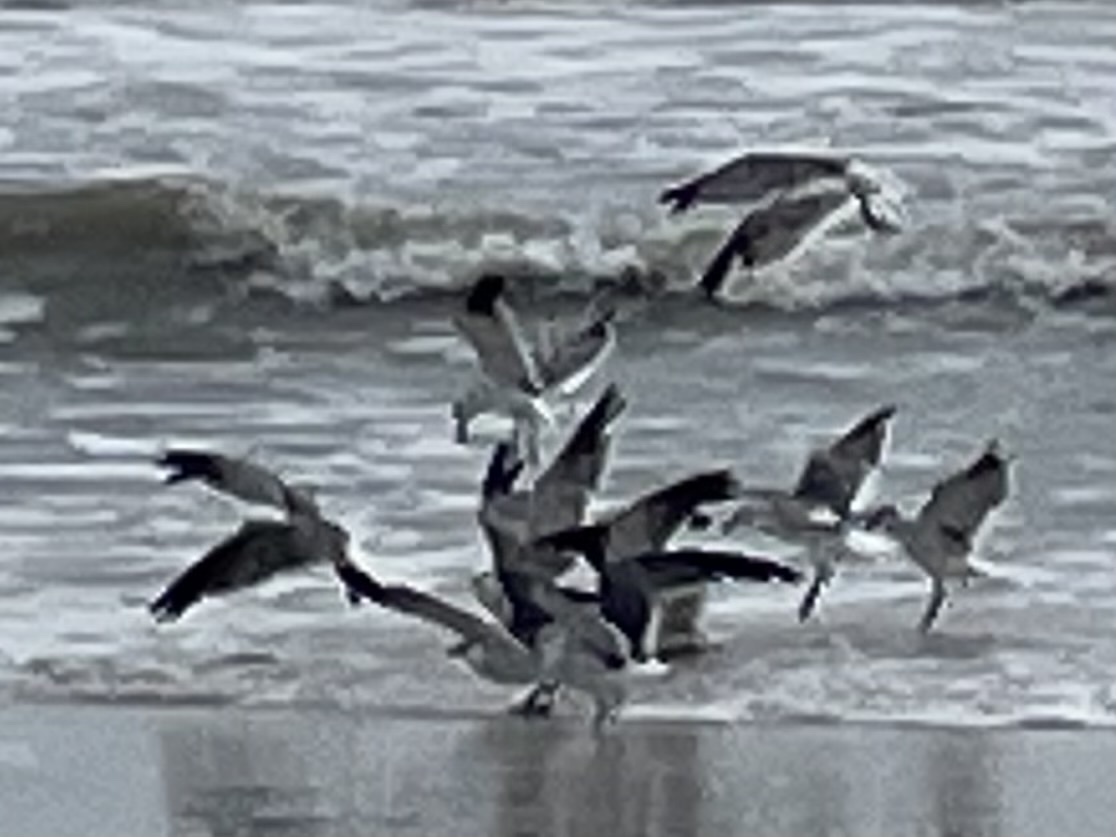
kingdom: Animalia
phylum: Chordata
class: Aves
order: Charadriiformes
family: Laridae
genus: Leucophaeus
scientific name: Leucophaeus atricilla
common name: Laughing gull
